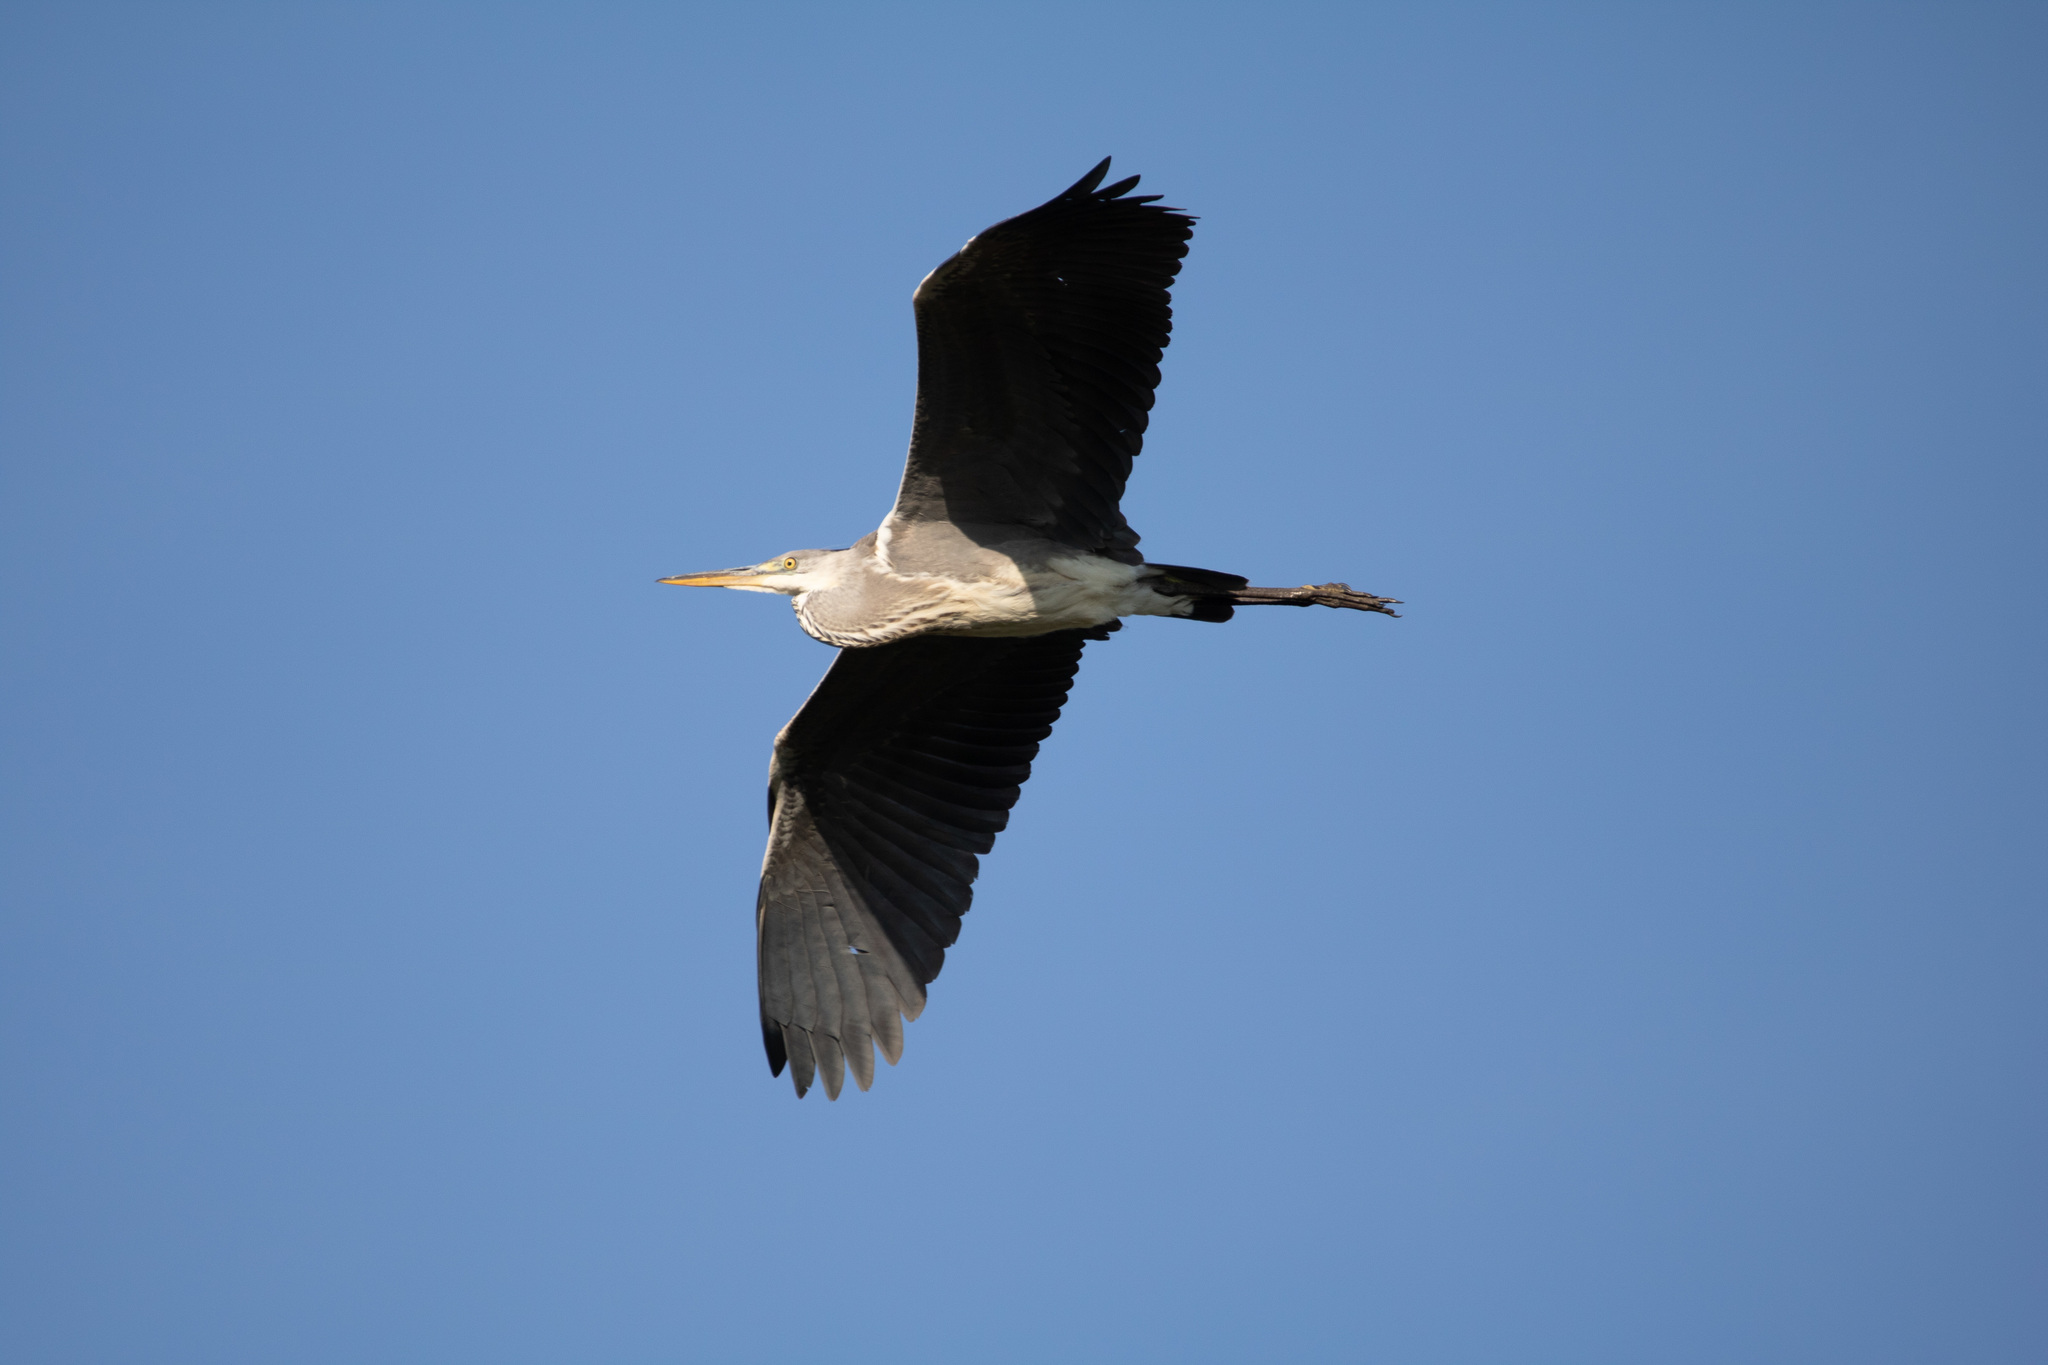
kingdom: Animalia
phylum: Chordata
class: Aves
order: Pelecaniformes
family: Ardeidae
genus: Ardea
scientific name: Ardea cinerea
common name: Grey heron
